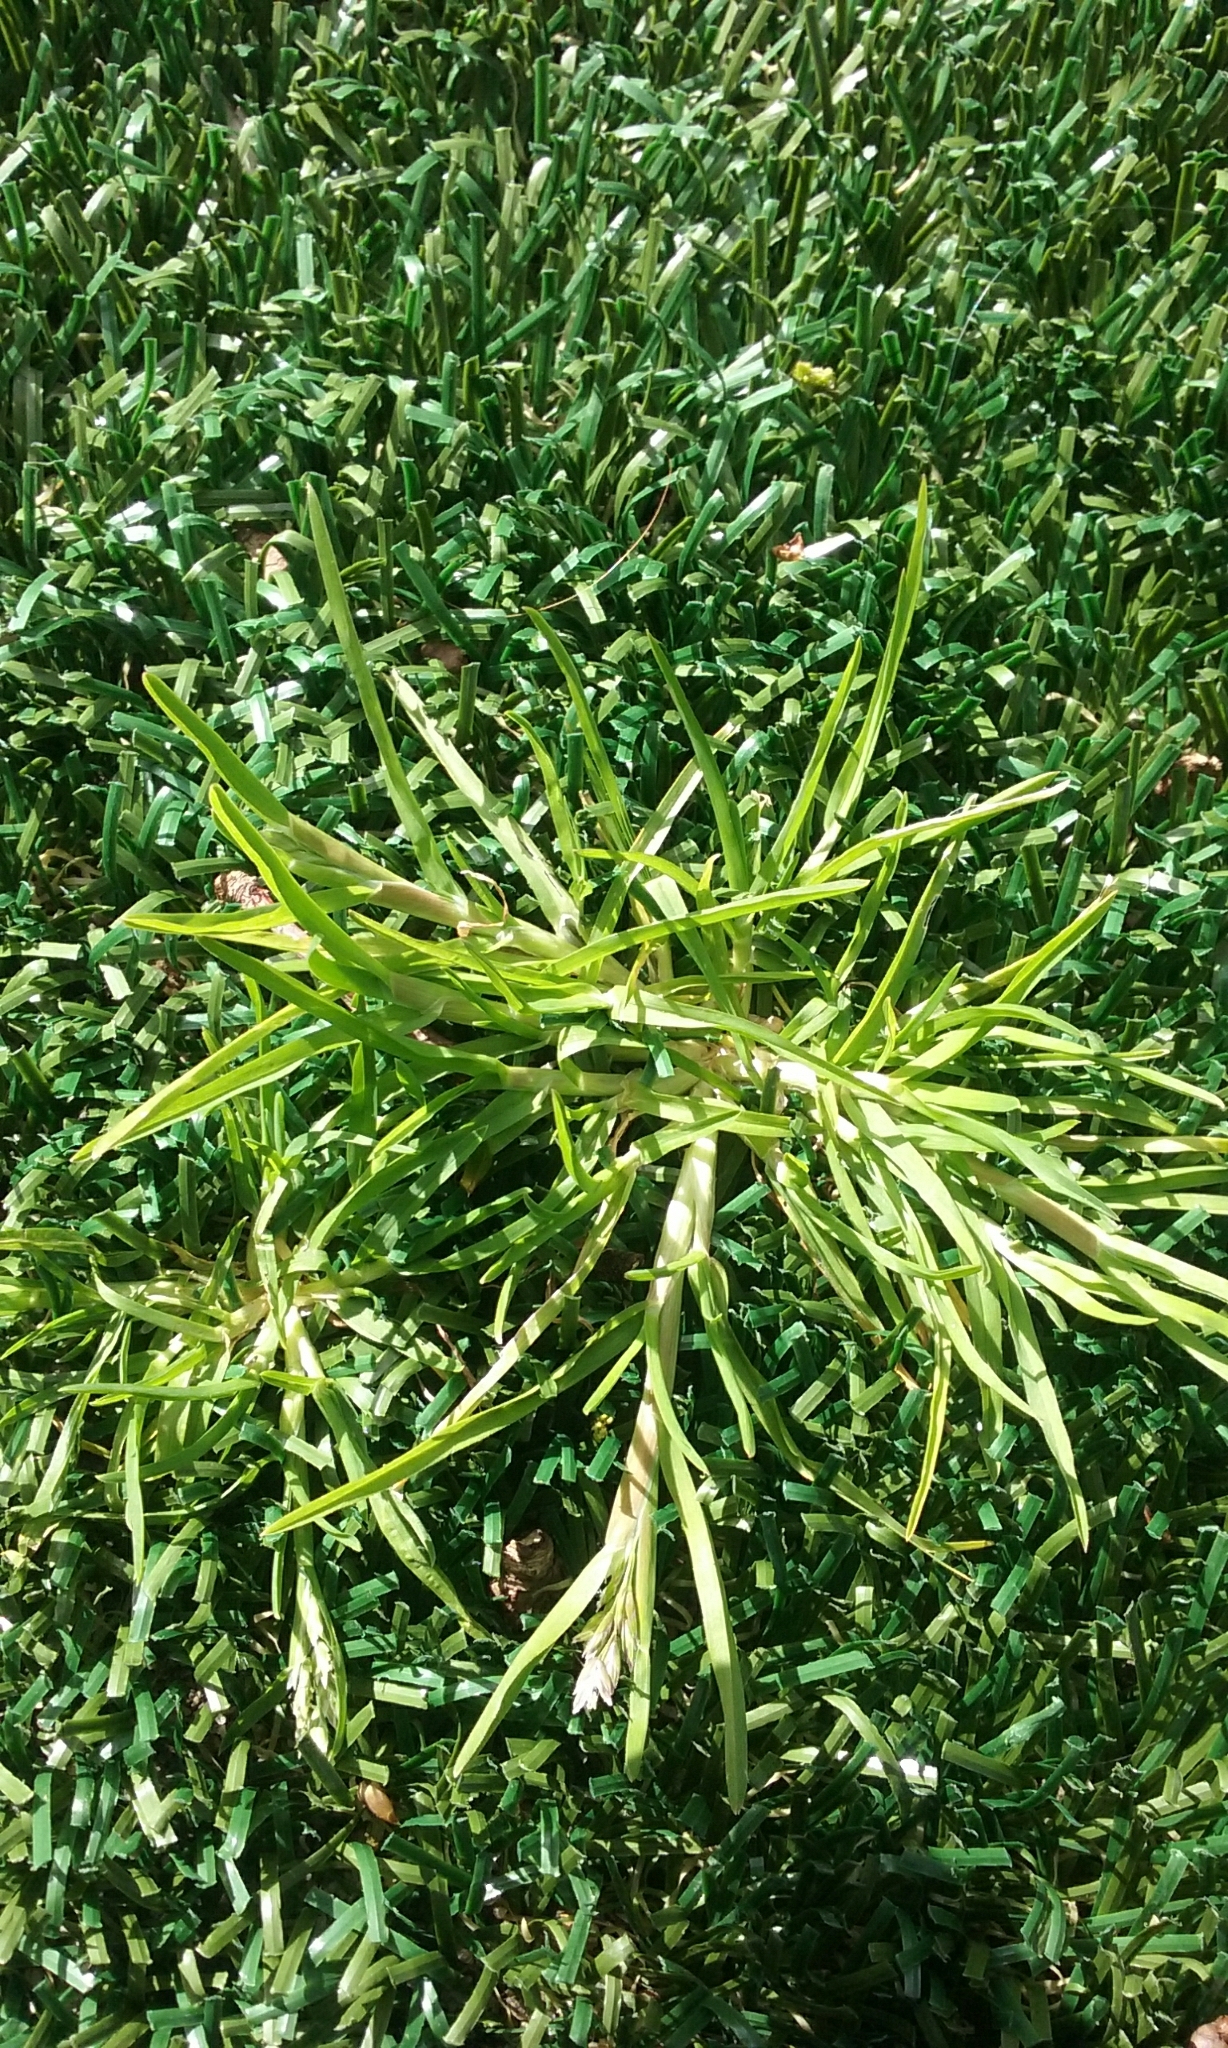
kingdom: Plantae
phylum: Tracheophyta
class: Liliopsida
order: Poales
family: Poaceae
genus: Poa
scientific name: Poa annua
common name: Annual bluegrass
